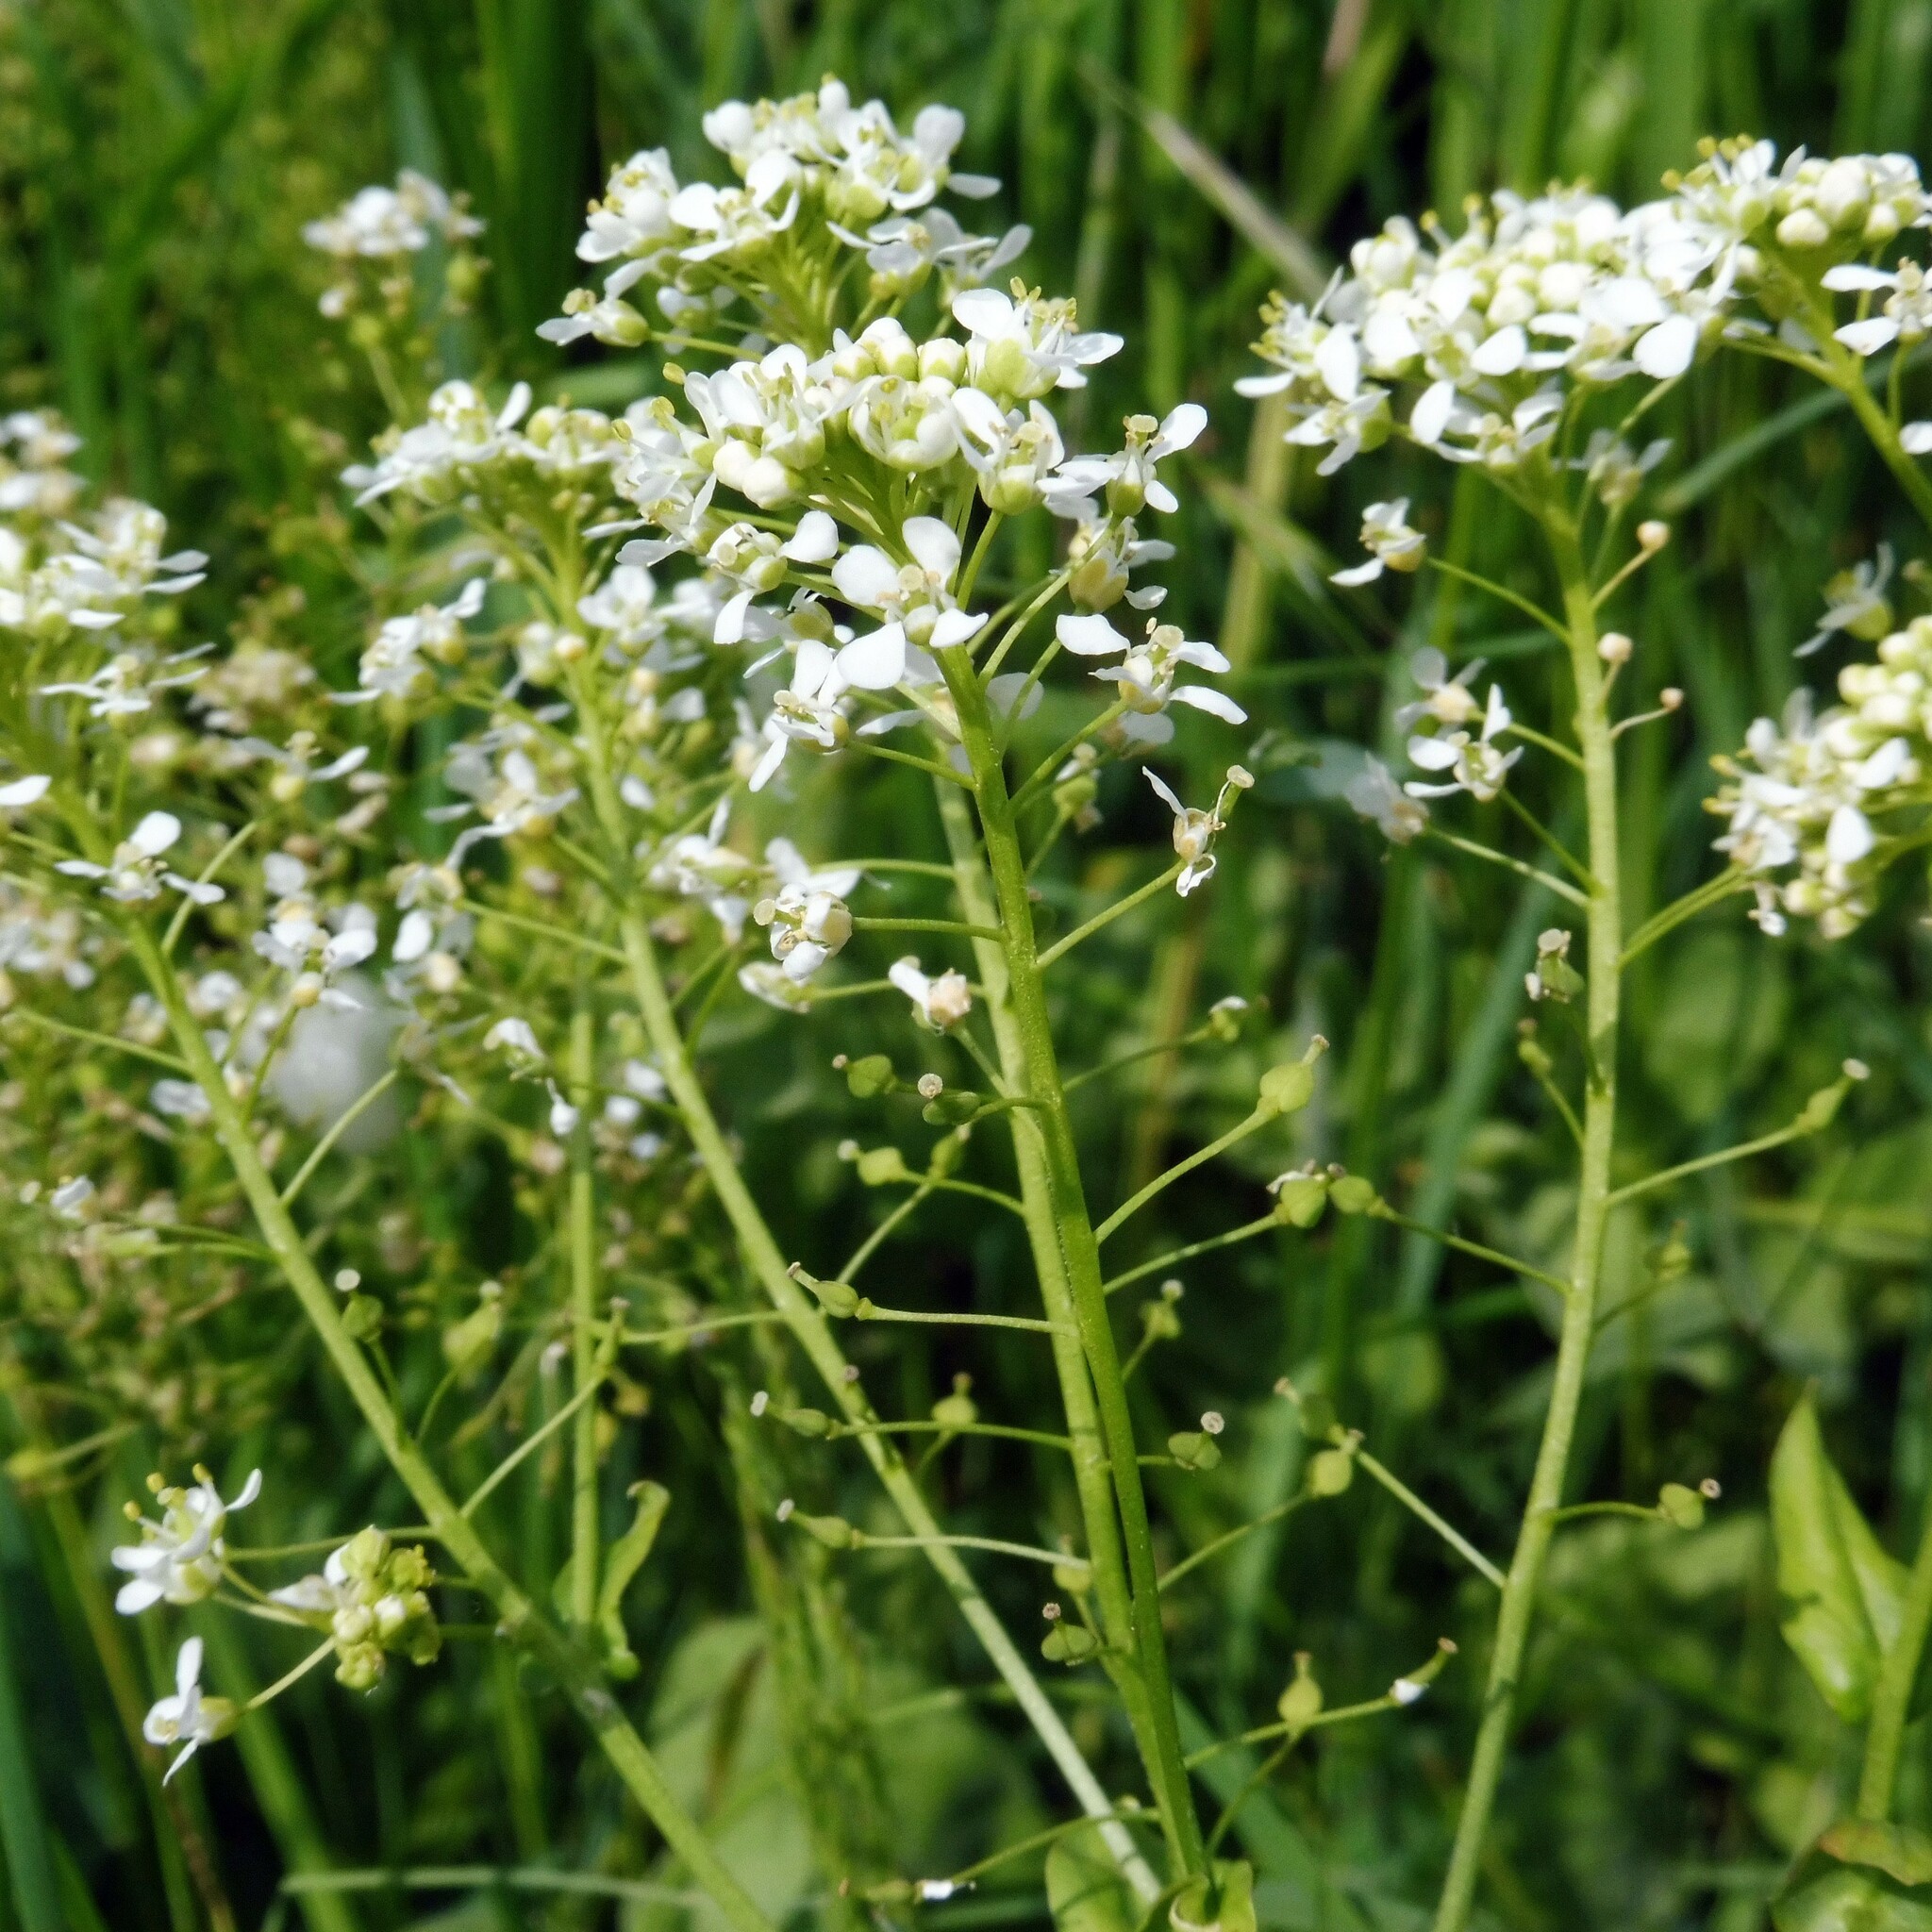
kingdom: Plantae
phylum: Tracheophyta
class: Magnoliopsida
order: Brassicales
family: Brassicaceae
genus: Armoracia
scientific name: Armoracia rusticana
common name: Horseradish
